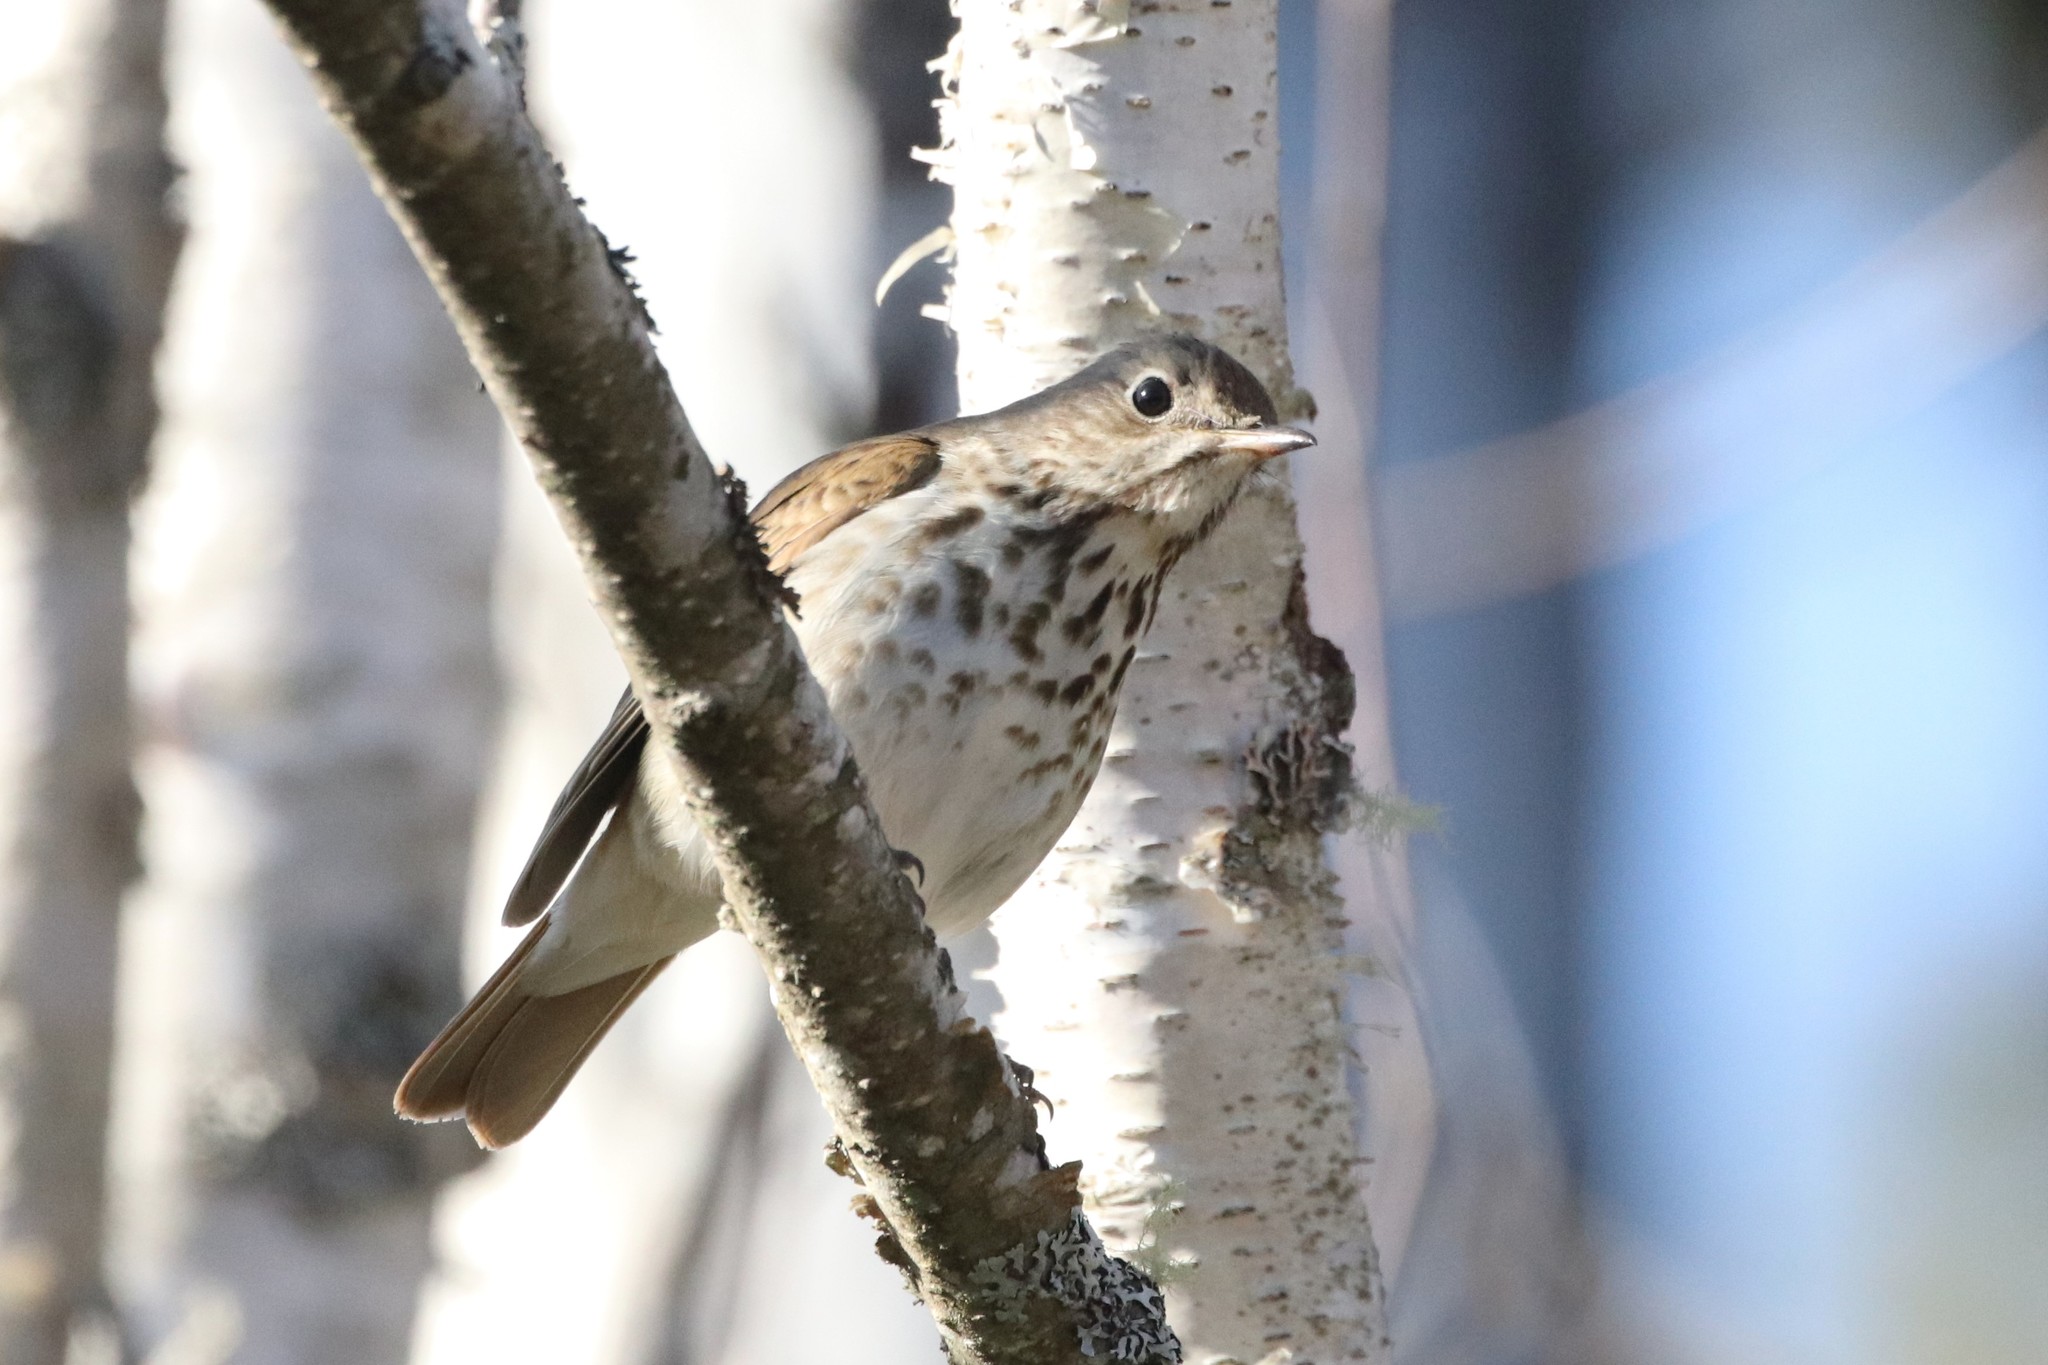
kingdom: Animalia
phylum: Chordata
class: Aves
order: Passeriformes
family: Turdidae
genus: Catharus
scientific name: Catharus guttatus
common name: Hermit thrush
